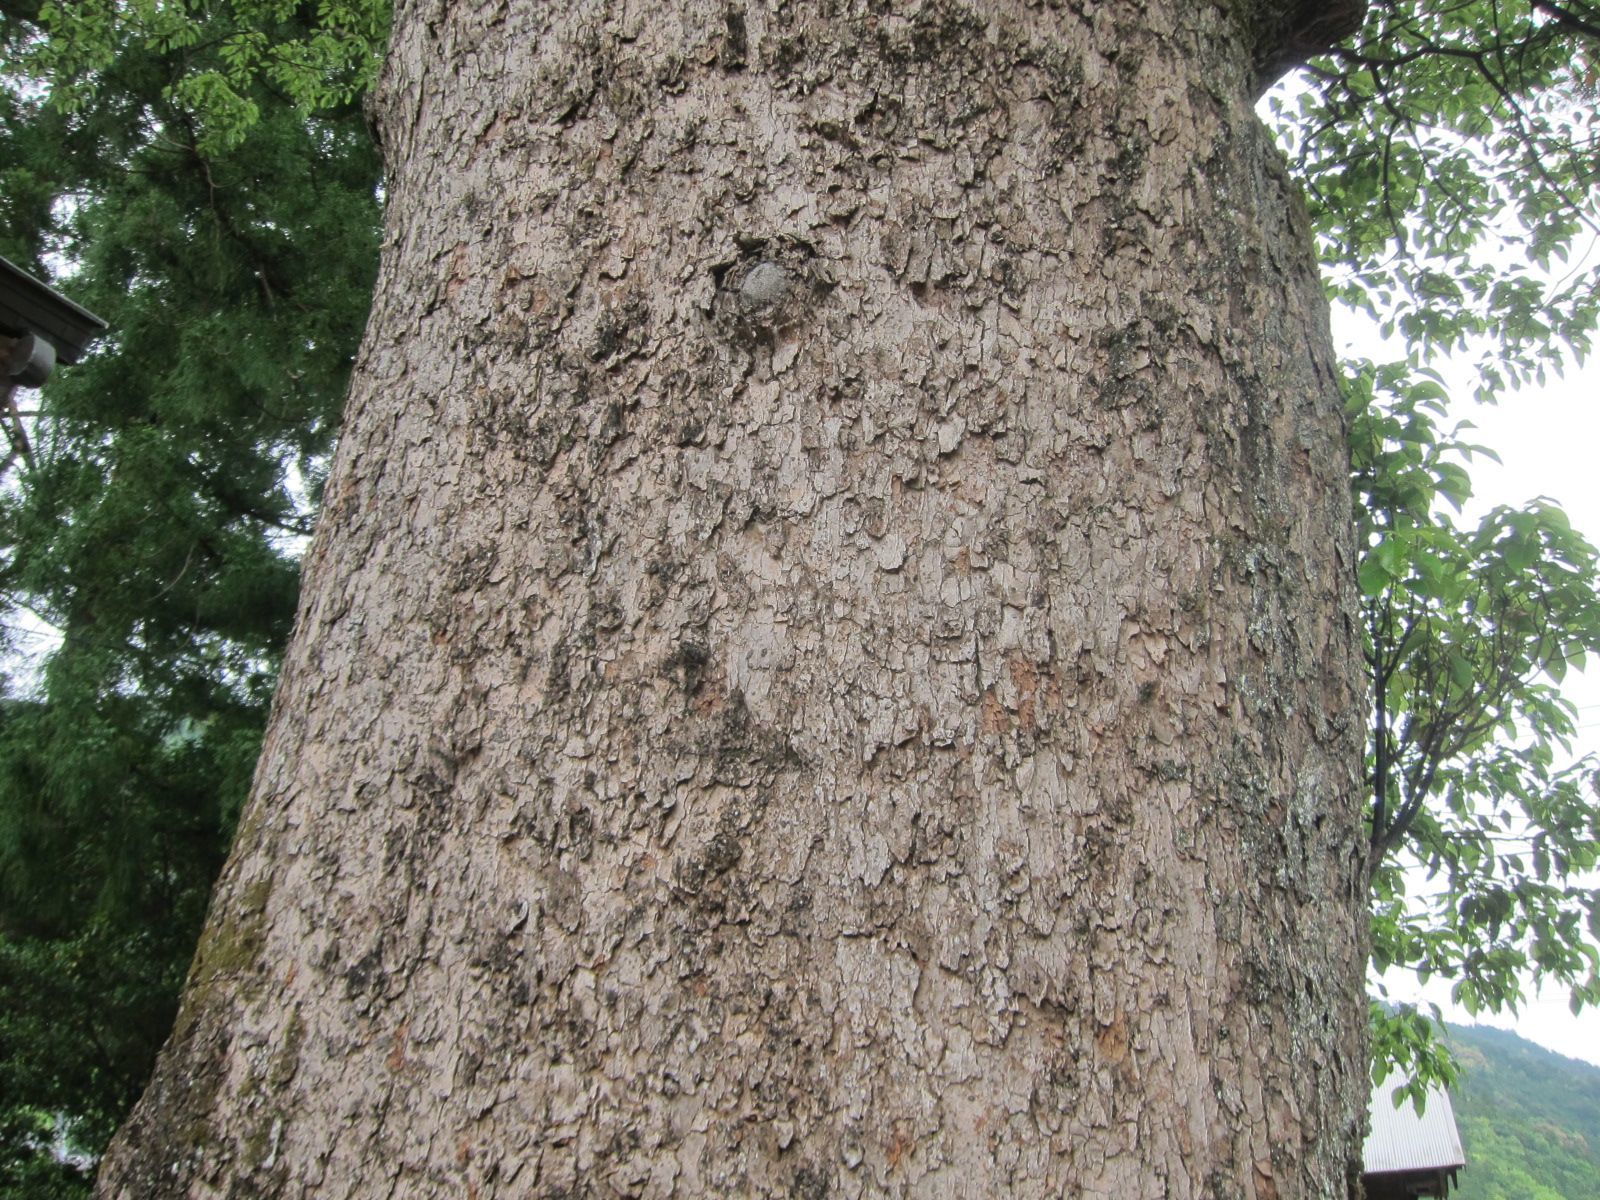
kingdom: Plantae
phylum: Tracheophyta
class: Magnoliopsida
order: Laurales
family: Lauraceae
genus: Cinnamomum
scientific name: Cinnamomum camphora
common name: Camphortree
